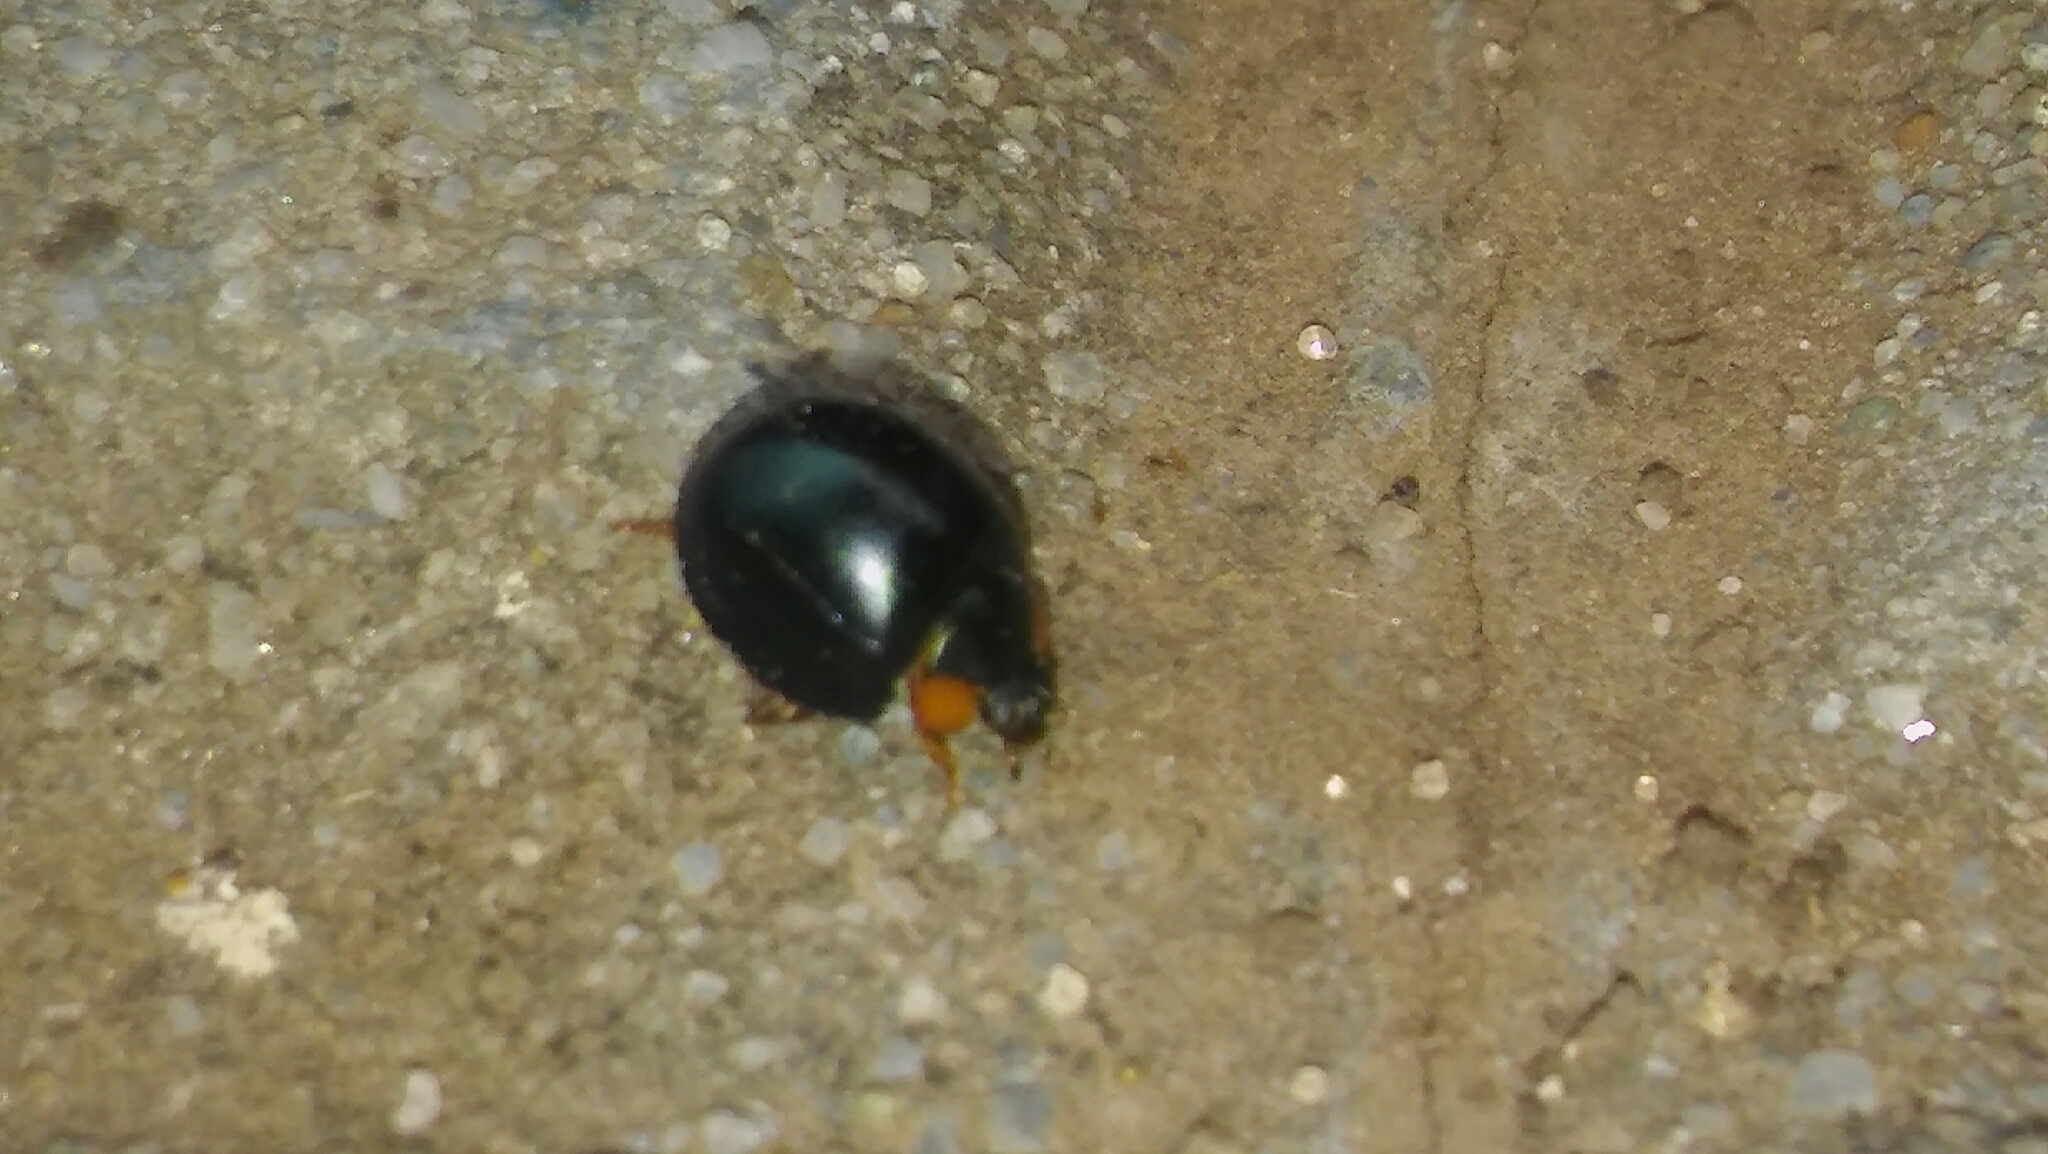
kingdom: Animalia
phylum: Arthropoda
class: Insecta
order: Coleoptera
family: Coccinellidae
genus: Curinus
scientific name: Curinus coeruleus
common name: Ladybird beetle
